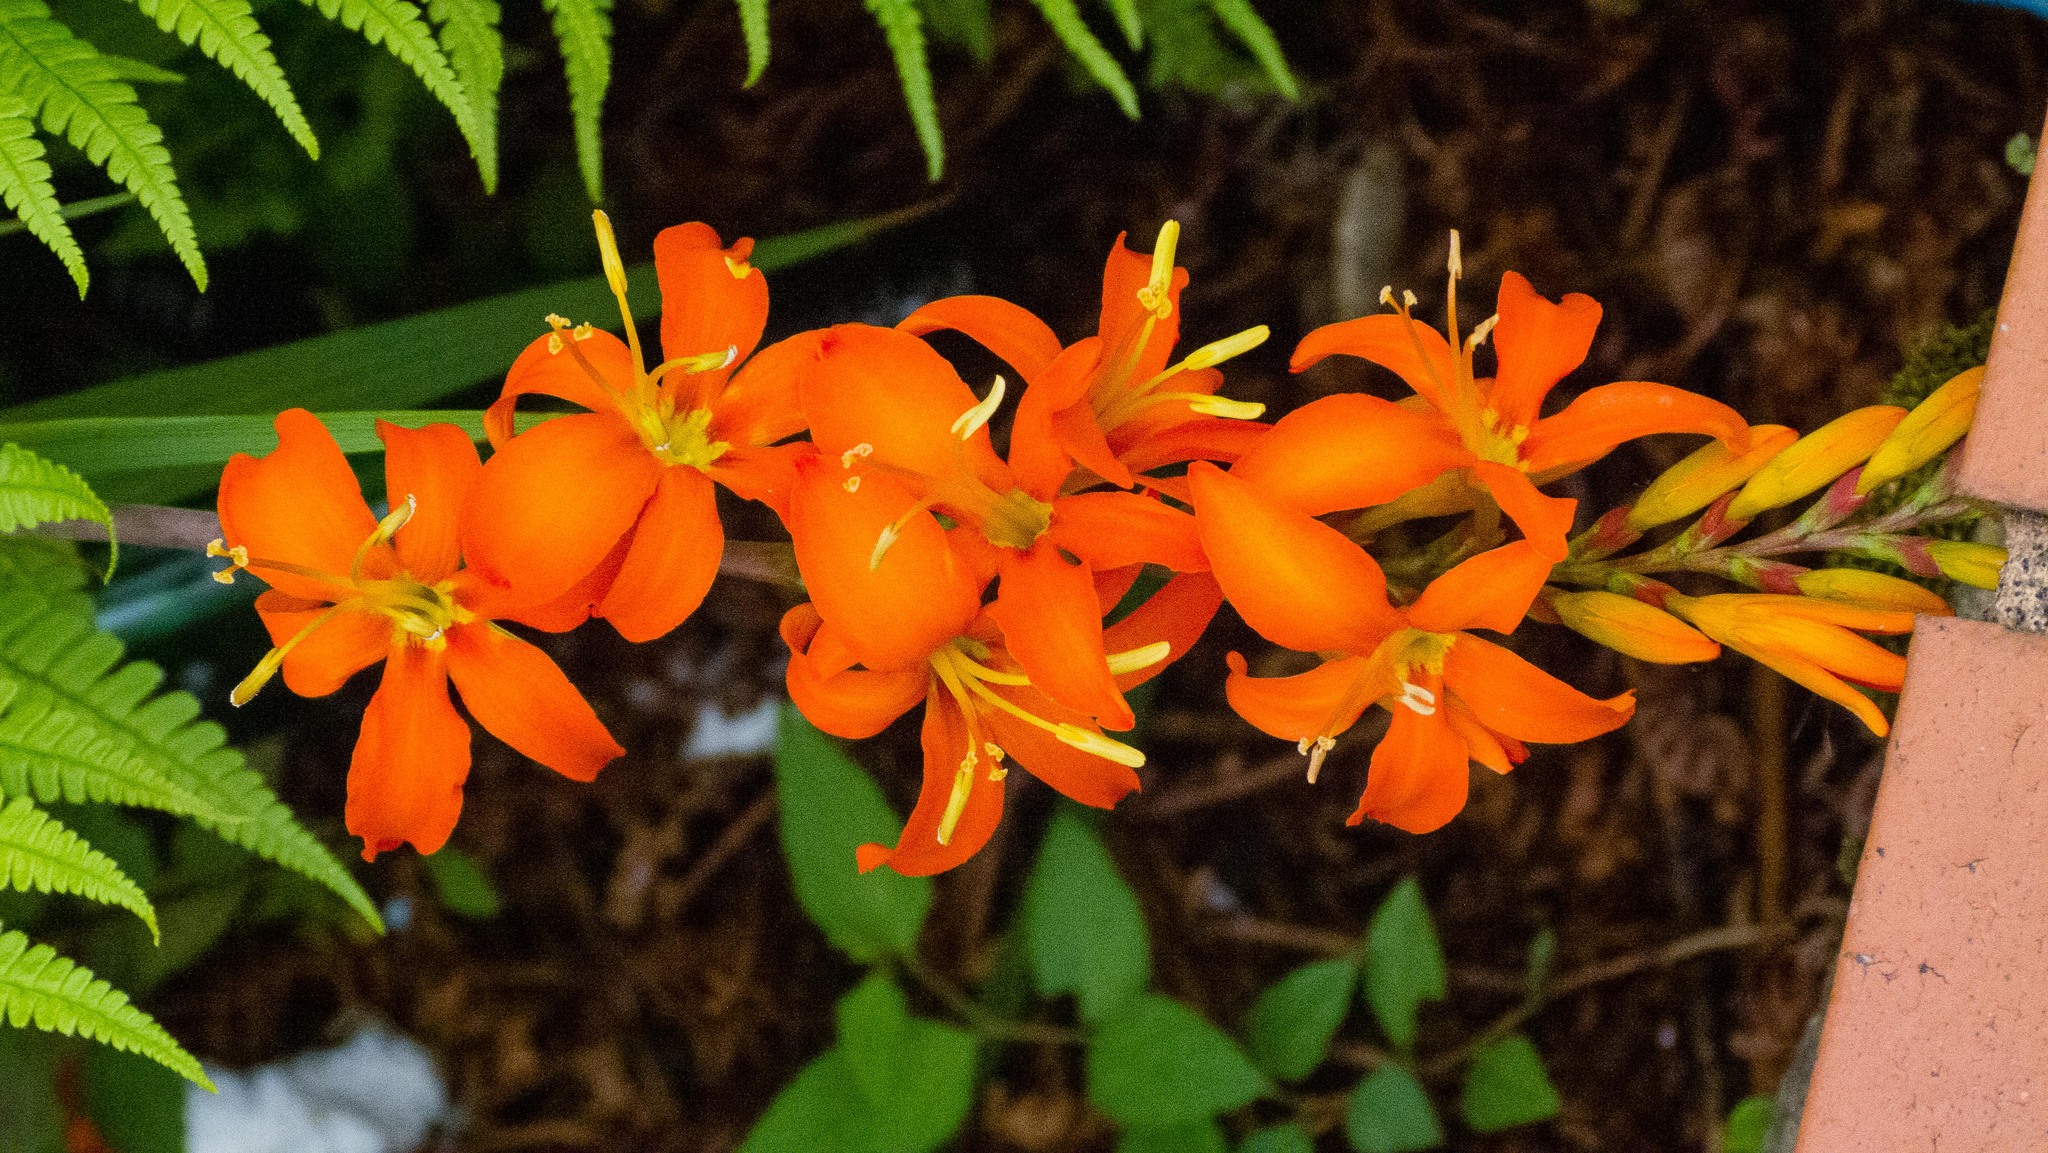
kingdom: Plantae
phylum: Tracheophyta
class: Liliopsida
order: Asparagales
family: Iridaceae
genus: Crocosmia
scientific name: Crocosmia crocosmiiflora
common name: Montbretia
